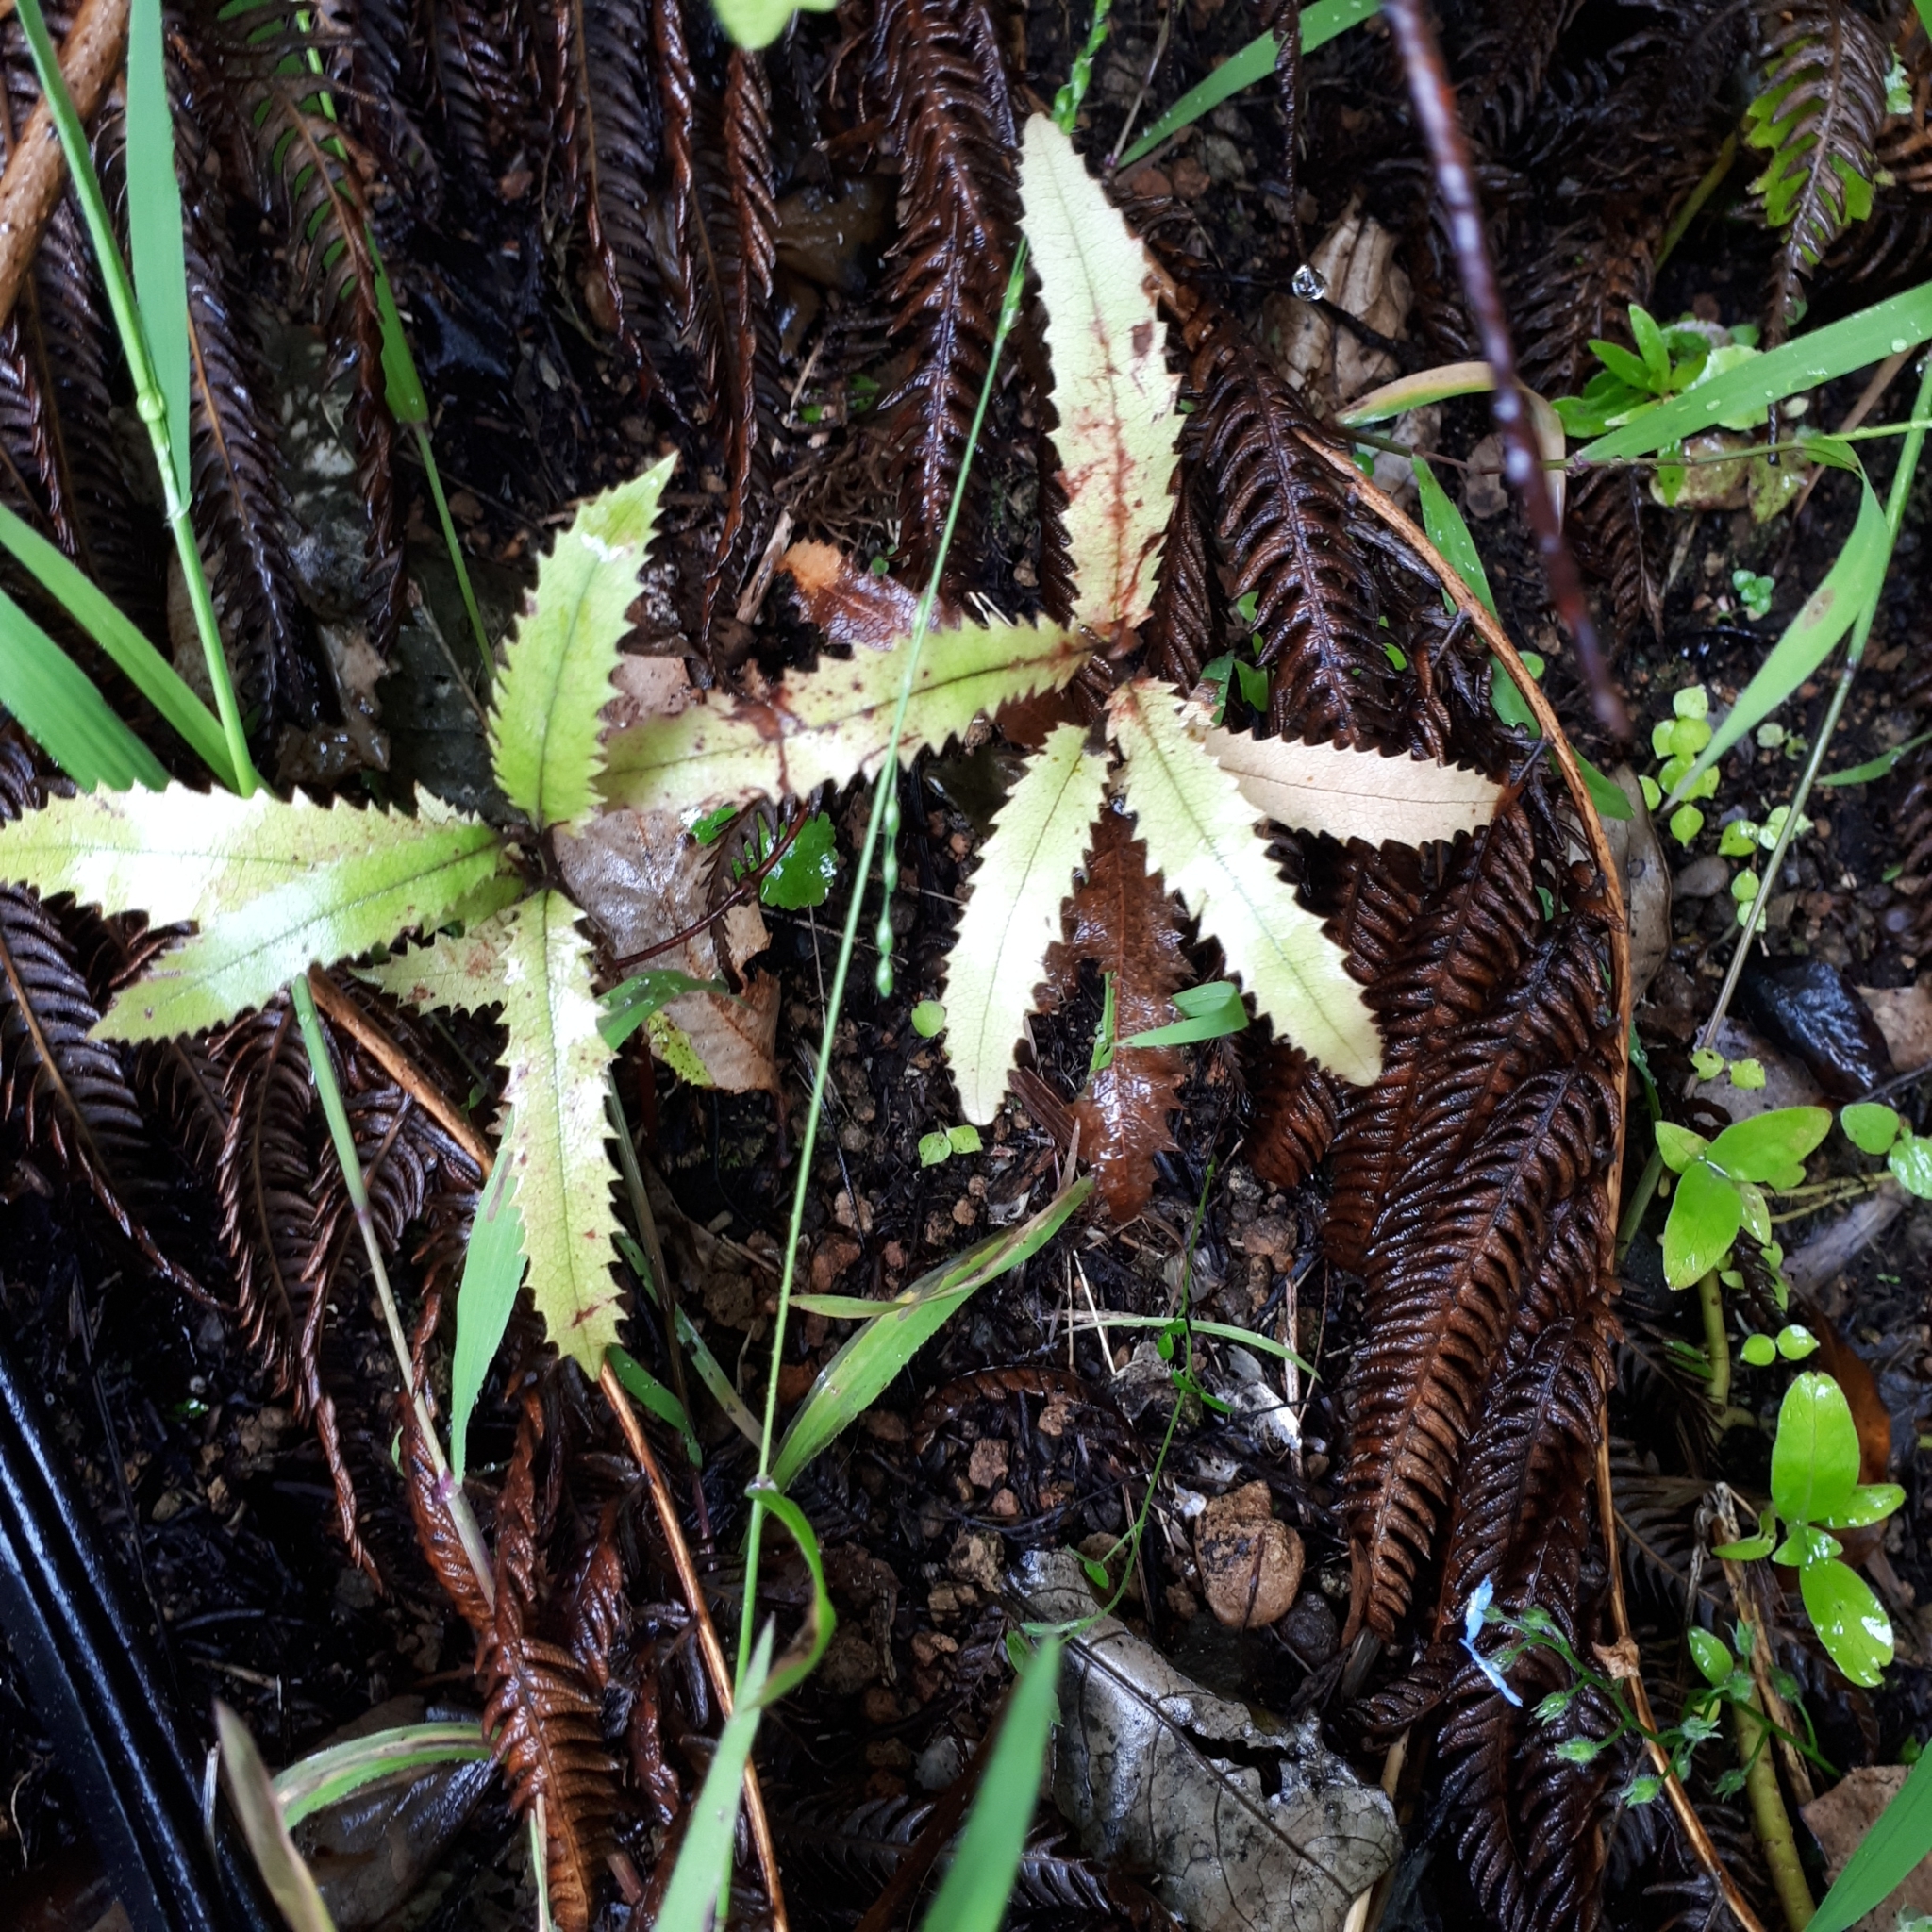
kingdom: Plantae
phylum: Tracheophyta
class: Magnoliopsida
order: Proteales
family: Proteaceae
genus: Knightia
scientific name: Knightia excelsa
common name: New zealand-honeysuckle
